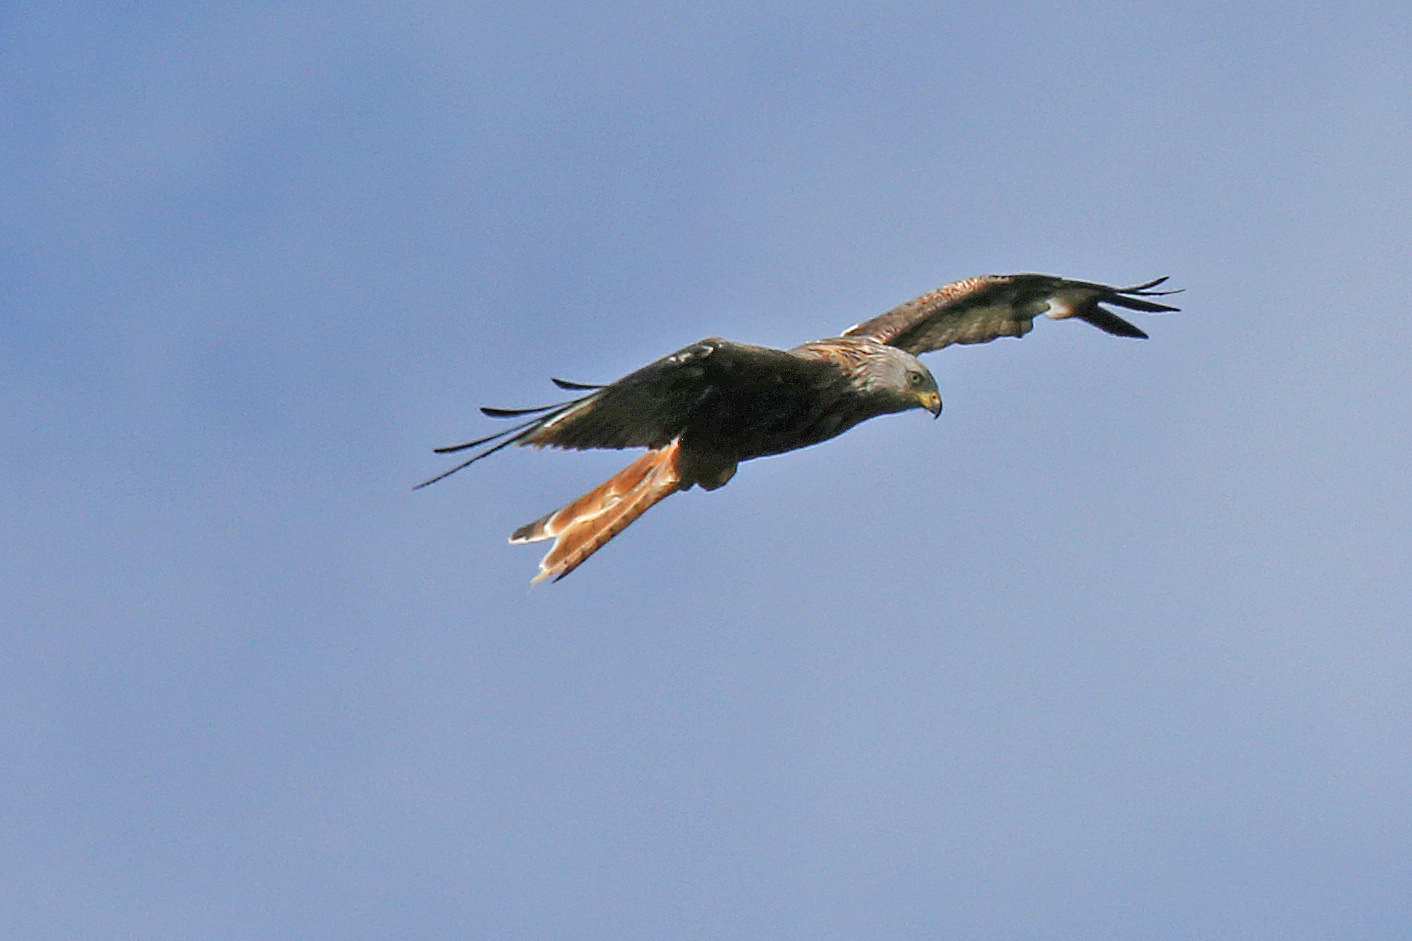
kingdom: Animalia
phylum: Chordata
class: Aves
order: Accipitriformes
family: Accipitridae
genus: Milvus
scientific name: Milvus milvus
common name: Red kite
